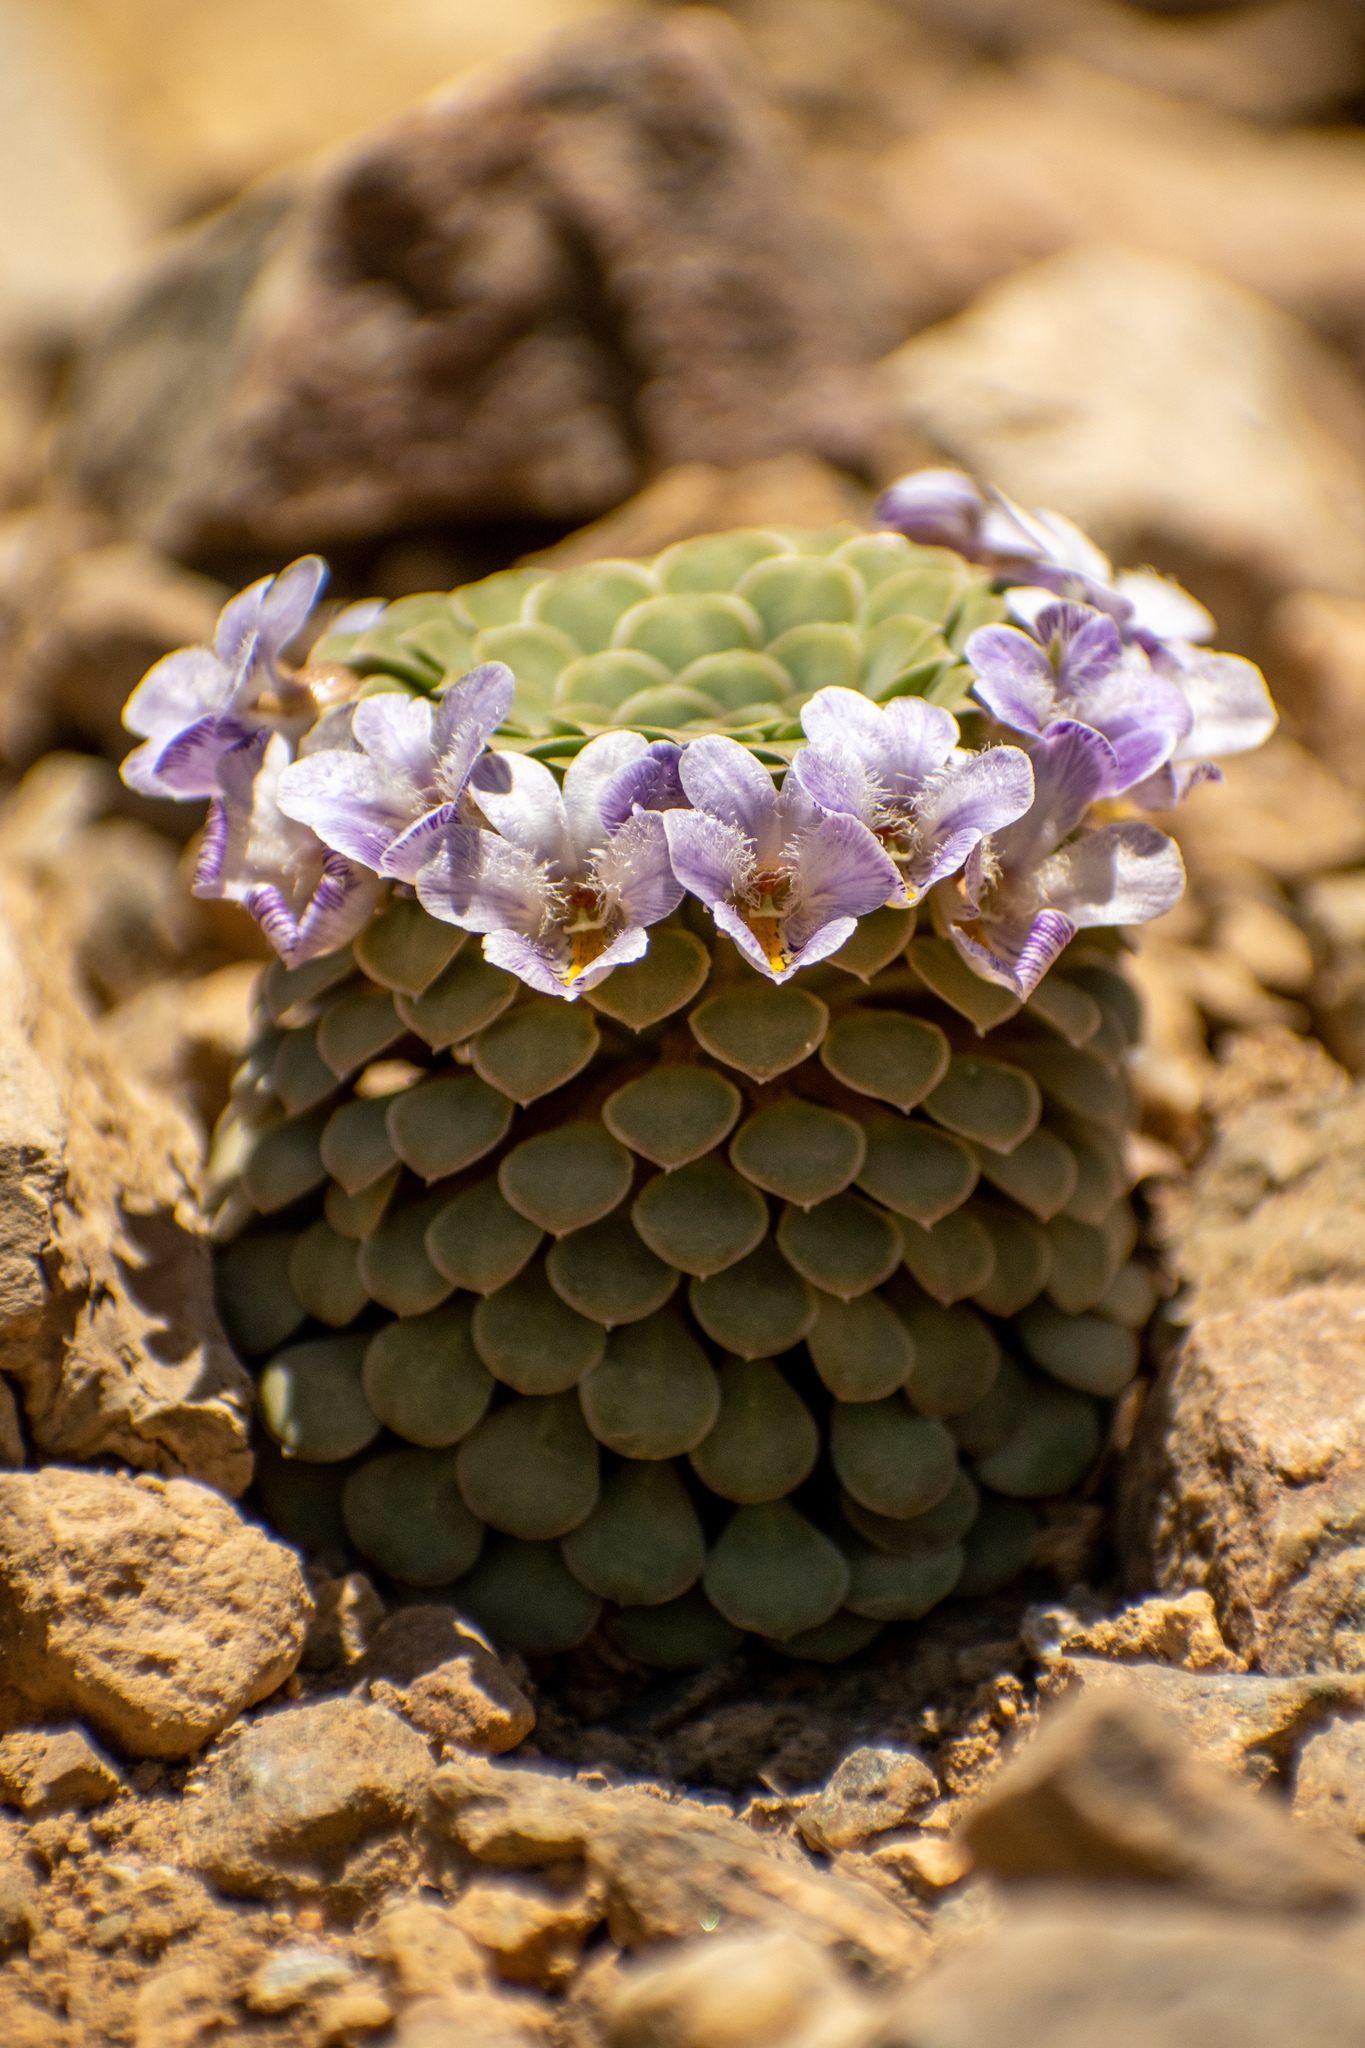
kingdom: Plantae
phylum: Tracheophyta
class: Magnoliopsida
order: Malpighiales
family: Violaceae
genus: Viola
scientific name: Viola petraea
